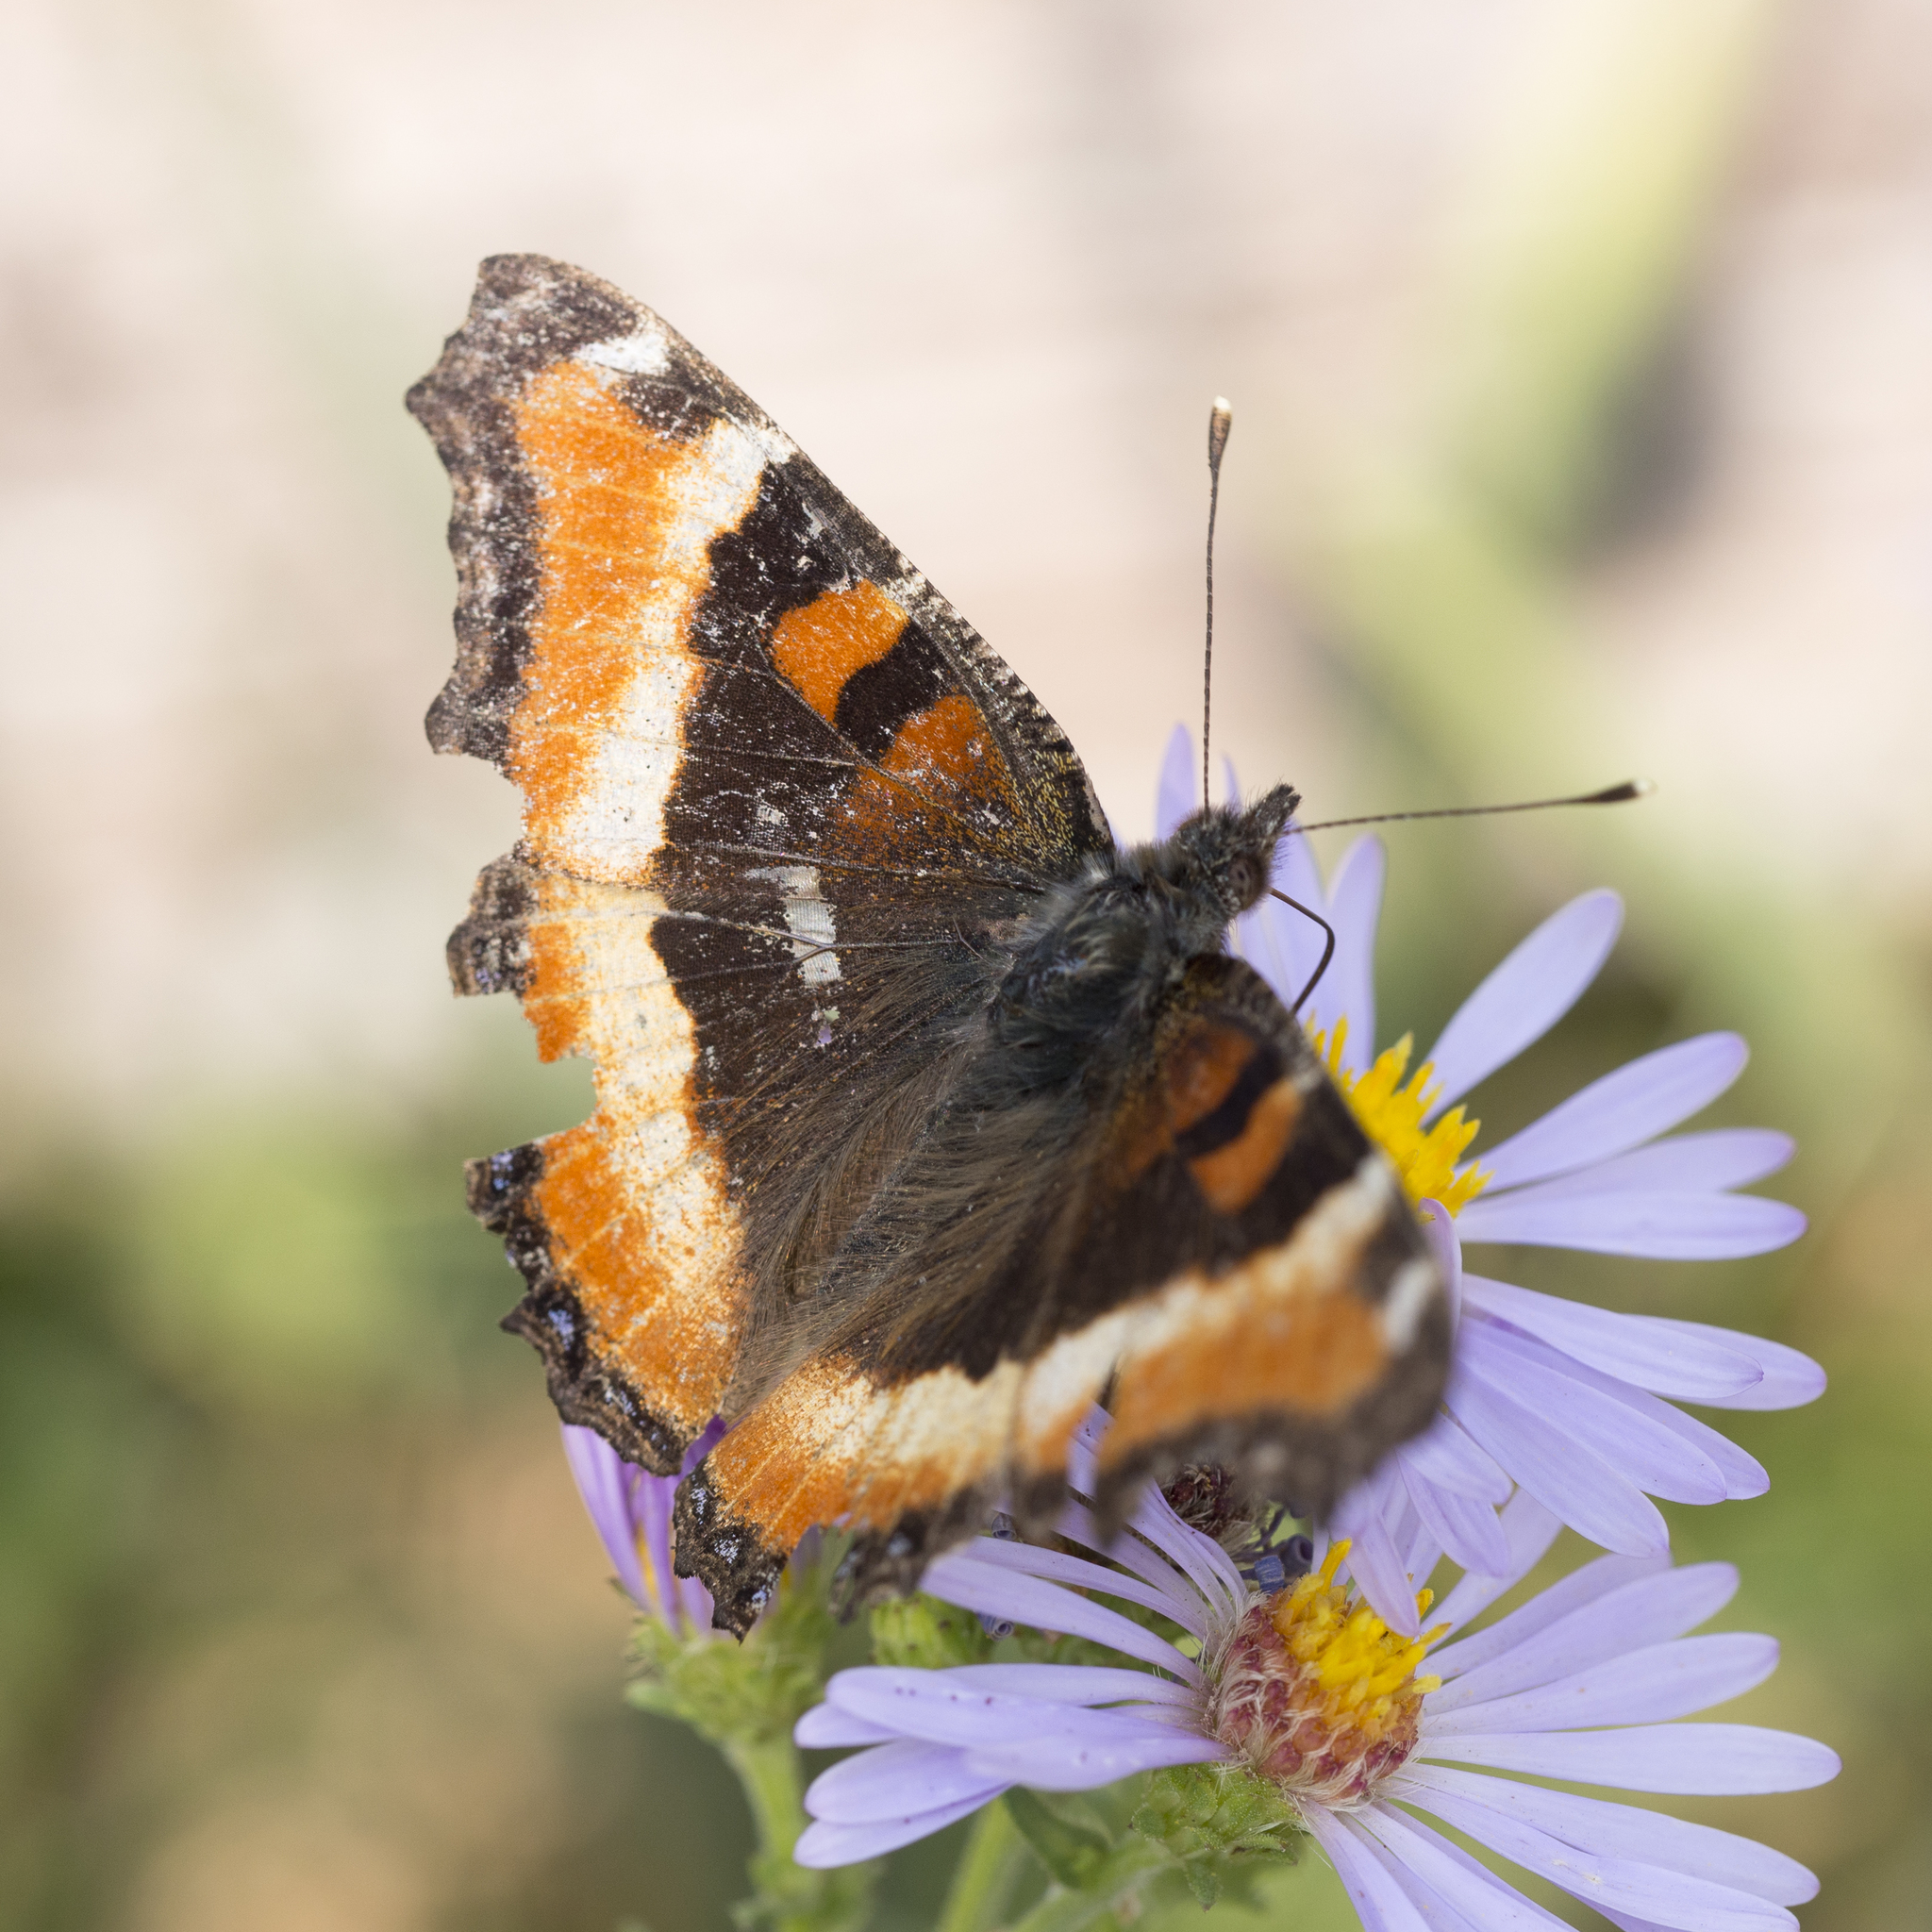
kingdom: Animalia
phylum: Arthropoda
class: Insecta
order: Lepidoptera
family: Nymphalidae
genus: Aglais
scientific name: Aglais milberti
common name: Milbert's tortoiseshell
